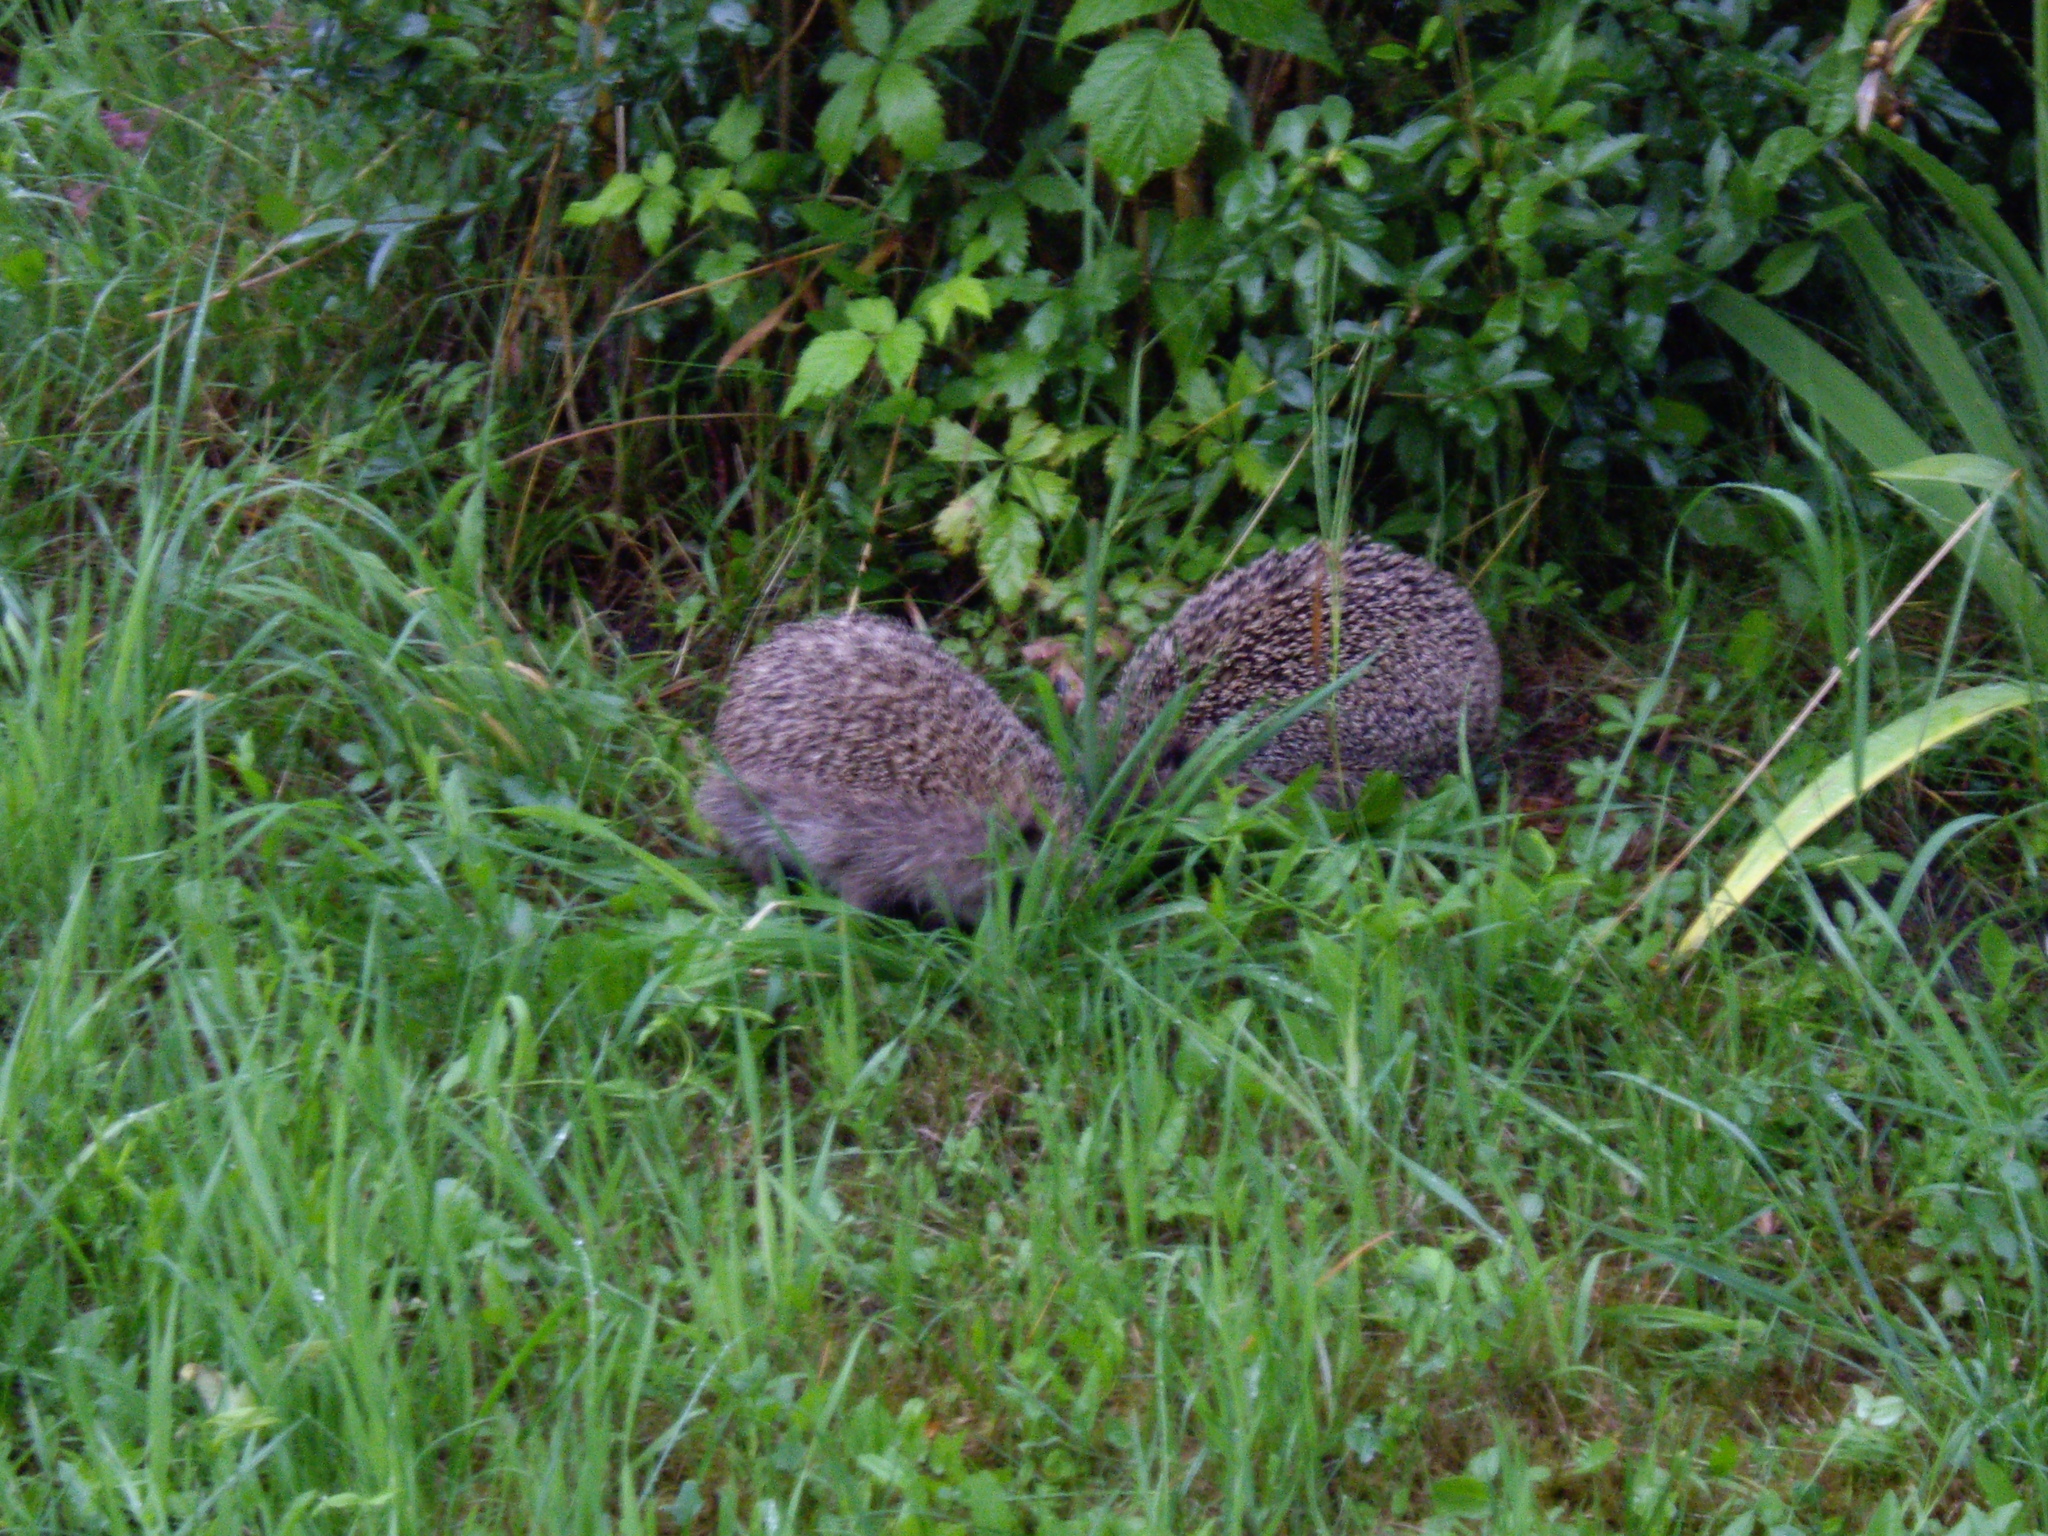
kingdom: Animalia
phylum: Chordata
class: Mammalia
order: Erinaceomorpha
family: Erinaceidae
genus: Erinaceus
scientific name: Erinaceus europaeus
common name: West european hedgehog
